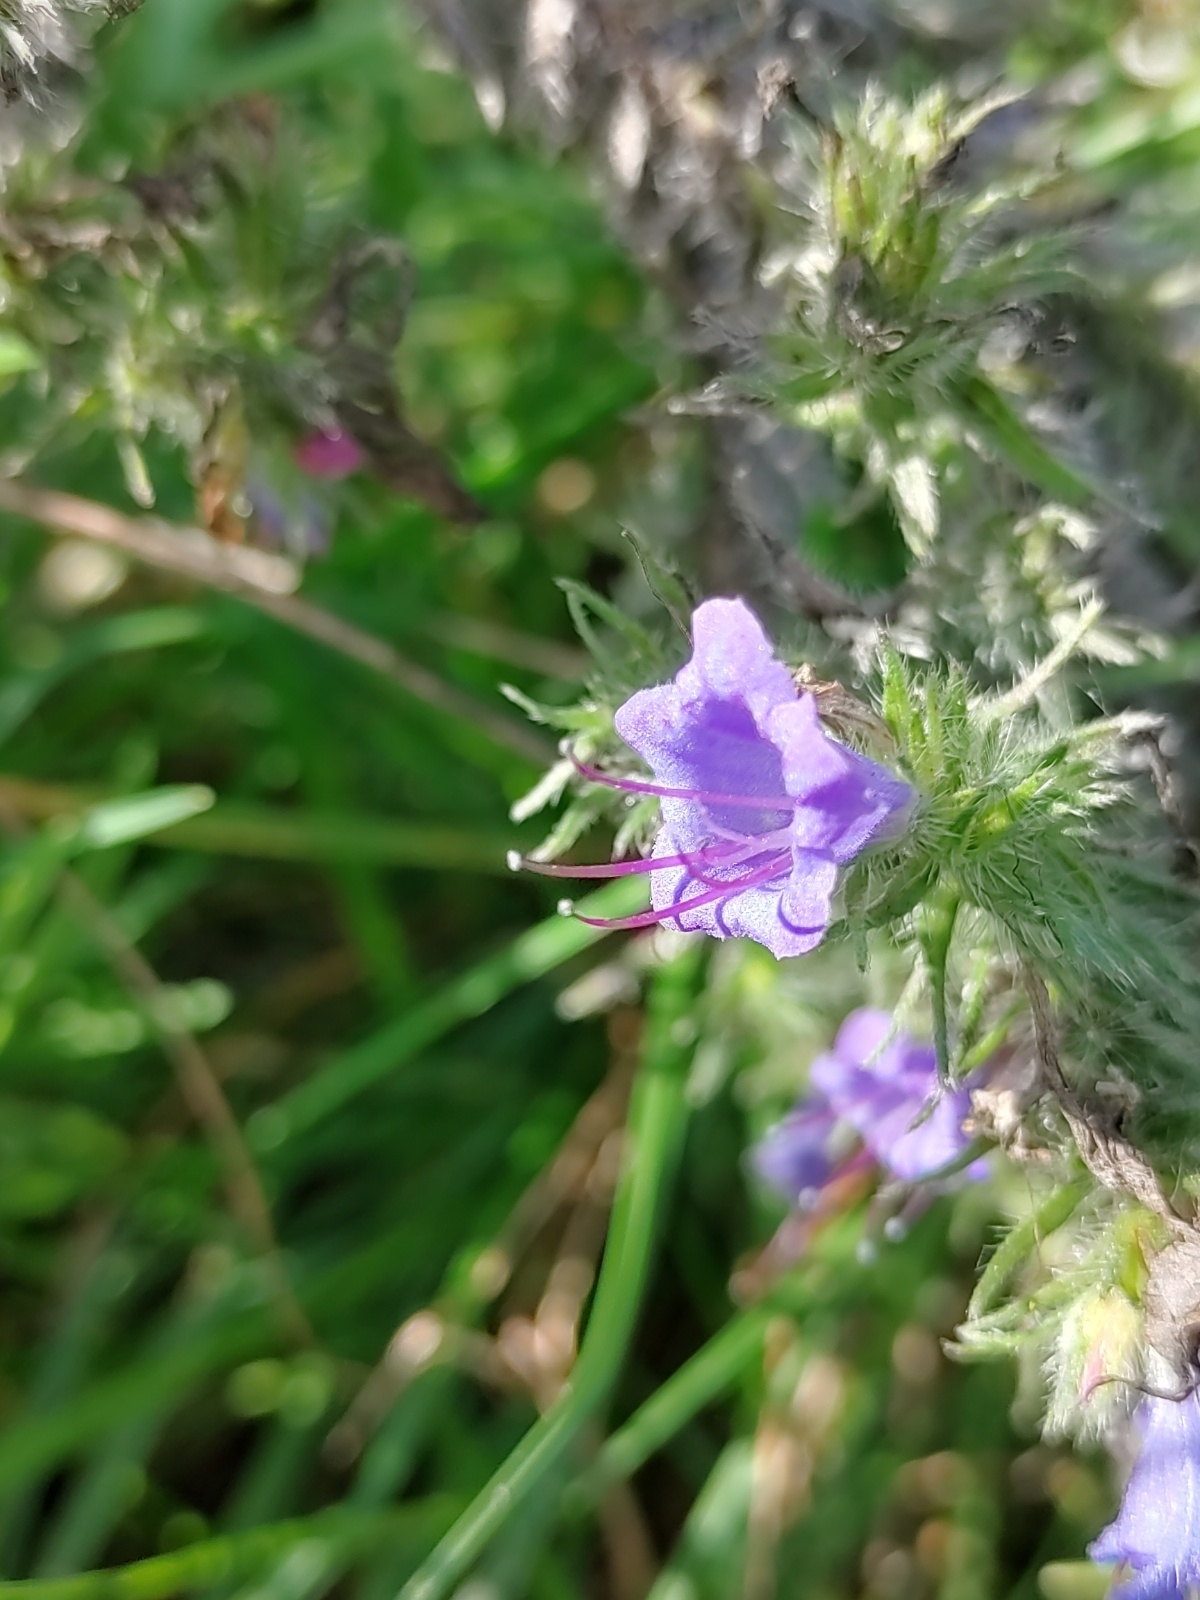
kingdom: Plantae
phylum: Tracheophyta
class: Magnoliopsida
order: Boraginales
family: Boraginaceae
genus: Echium
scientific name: Echium vulgare
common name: Common viper's bugloss
